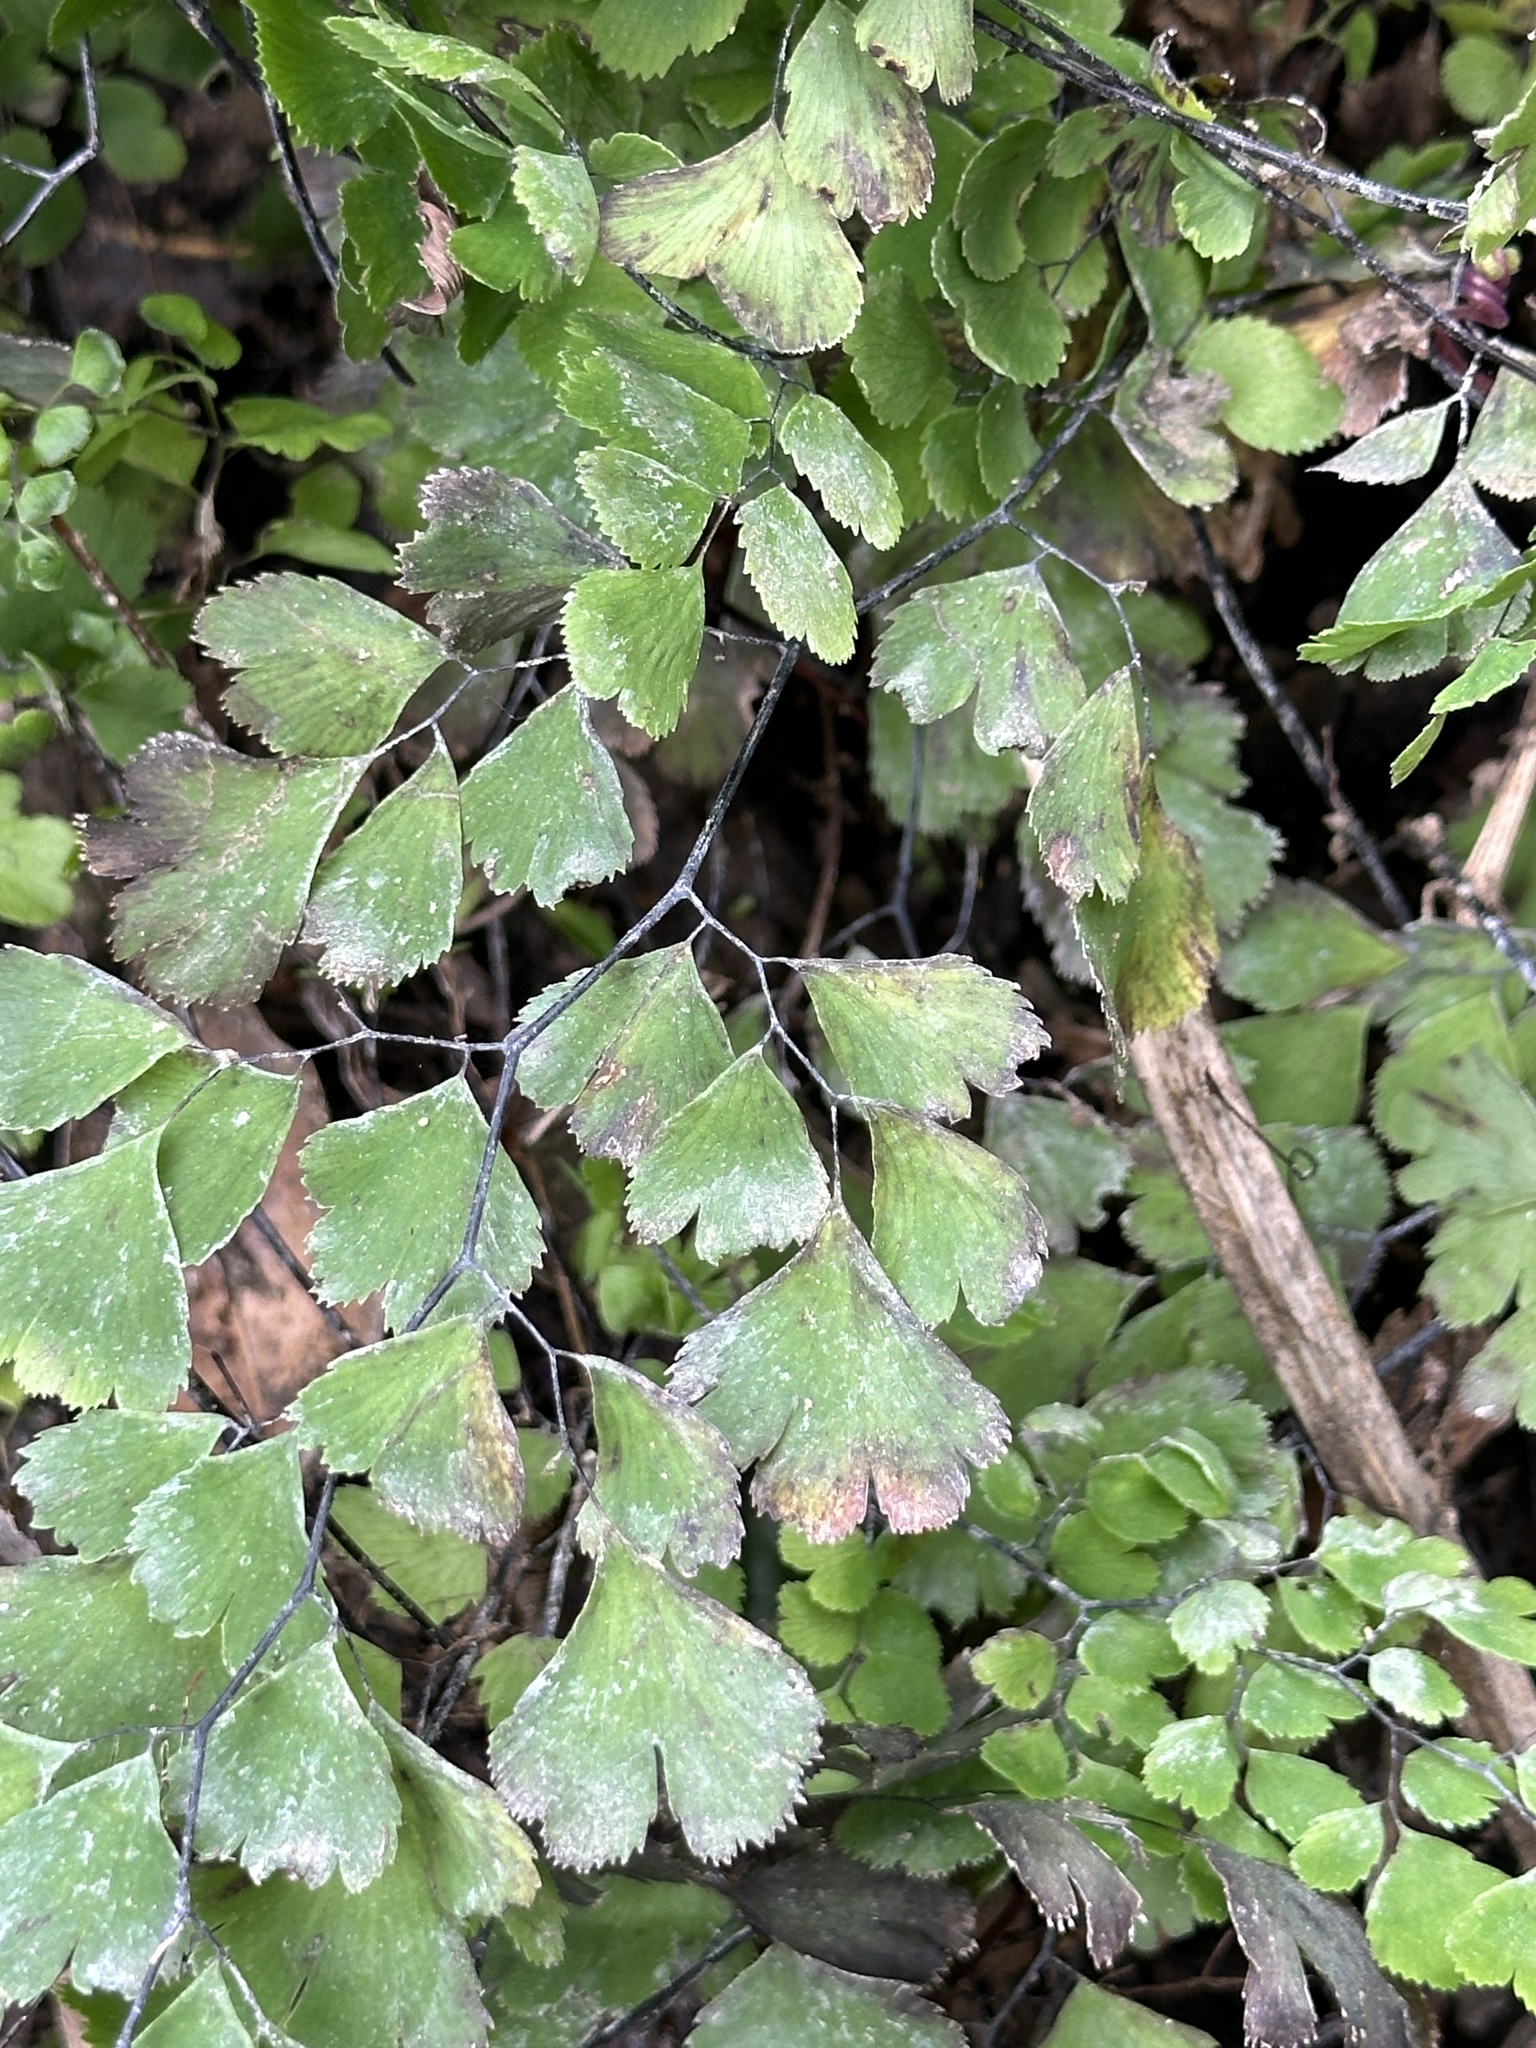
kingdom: Plantae
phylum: Tracheophyta
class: Polypodiopsida
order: Polypodiales
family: Pteridaceae
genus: Adiantum
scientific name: Adiantum capillus-veneris
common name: Maidenhair fern
